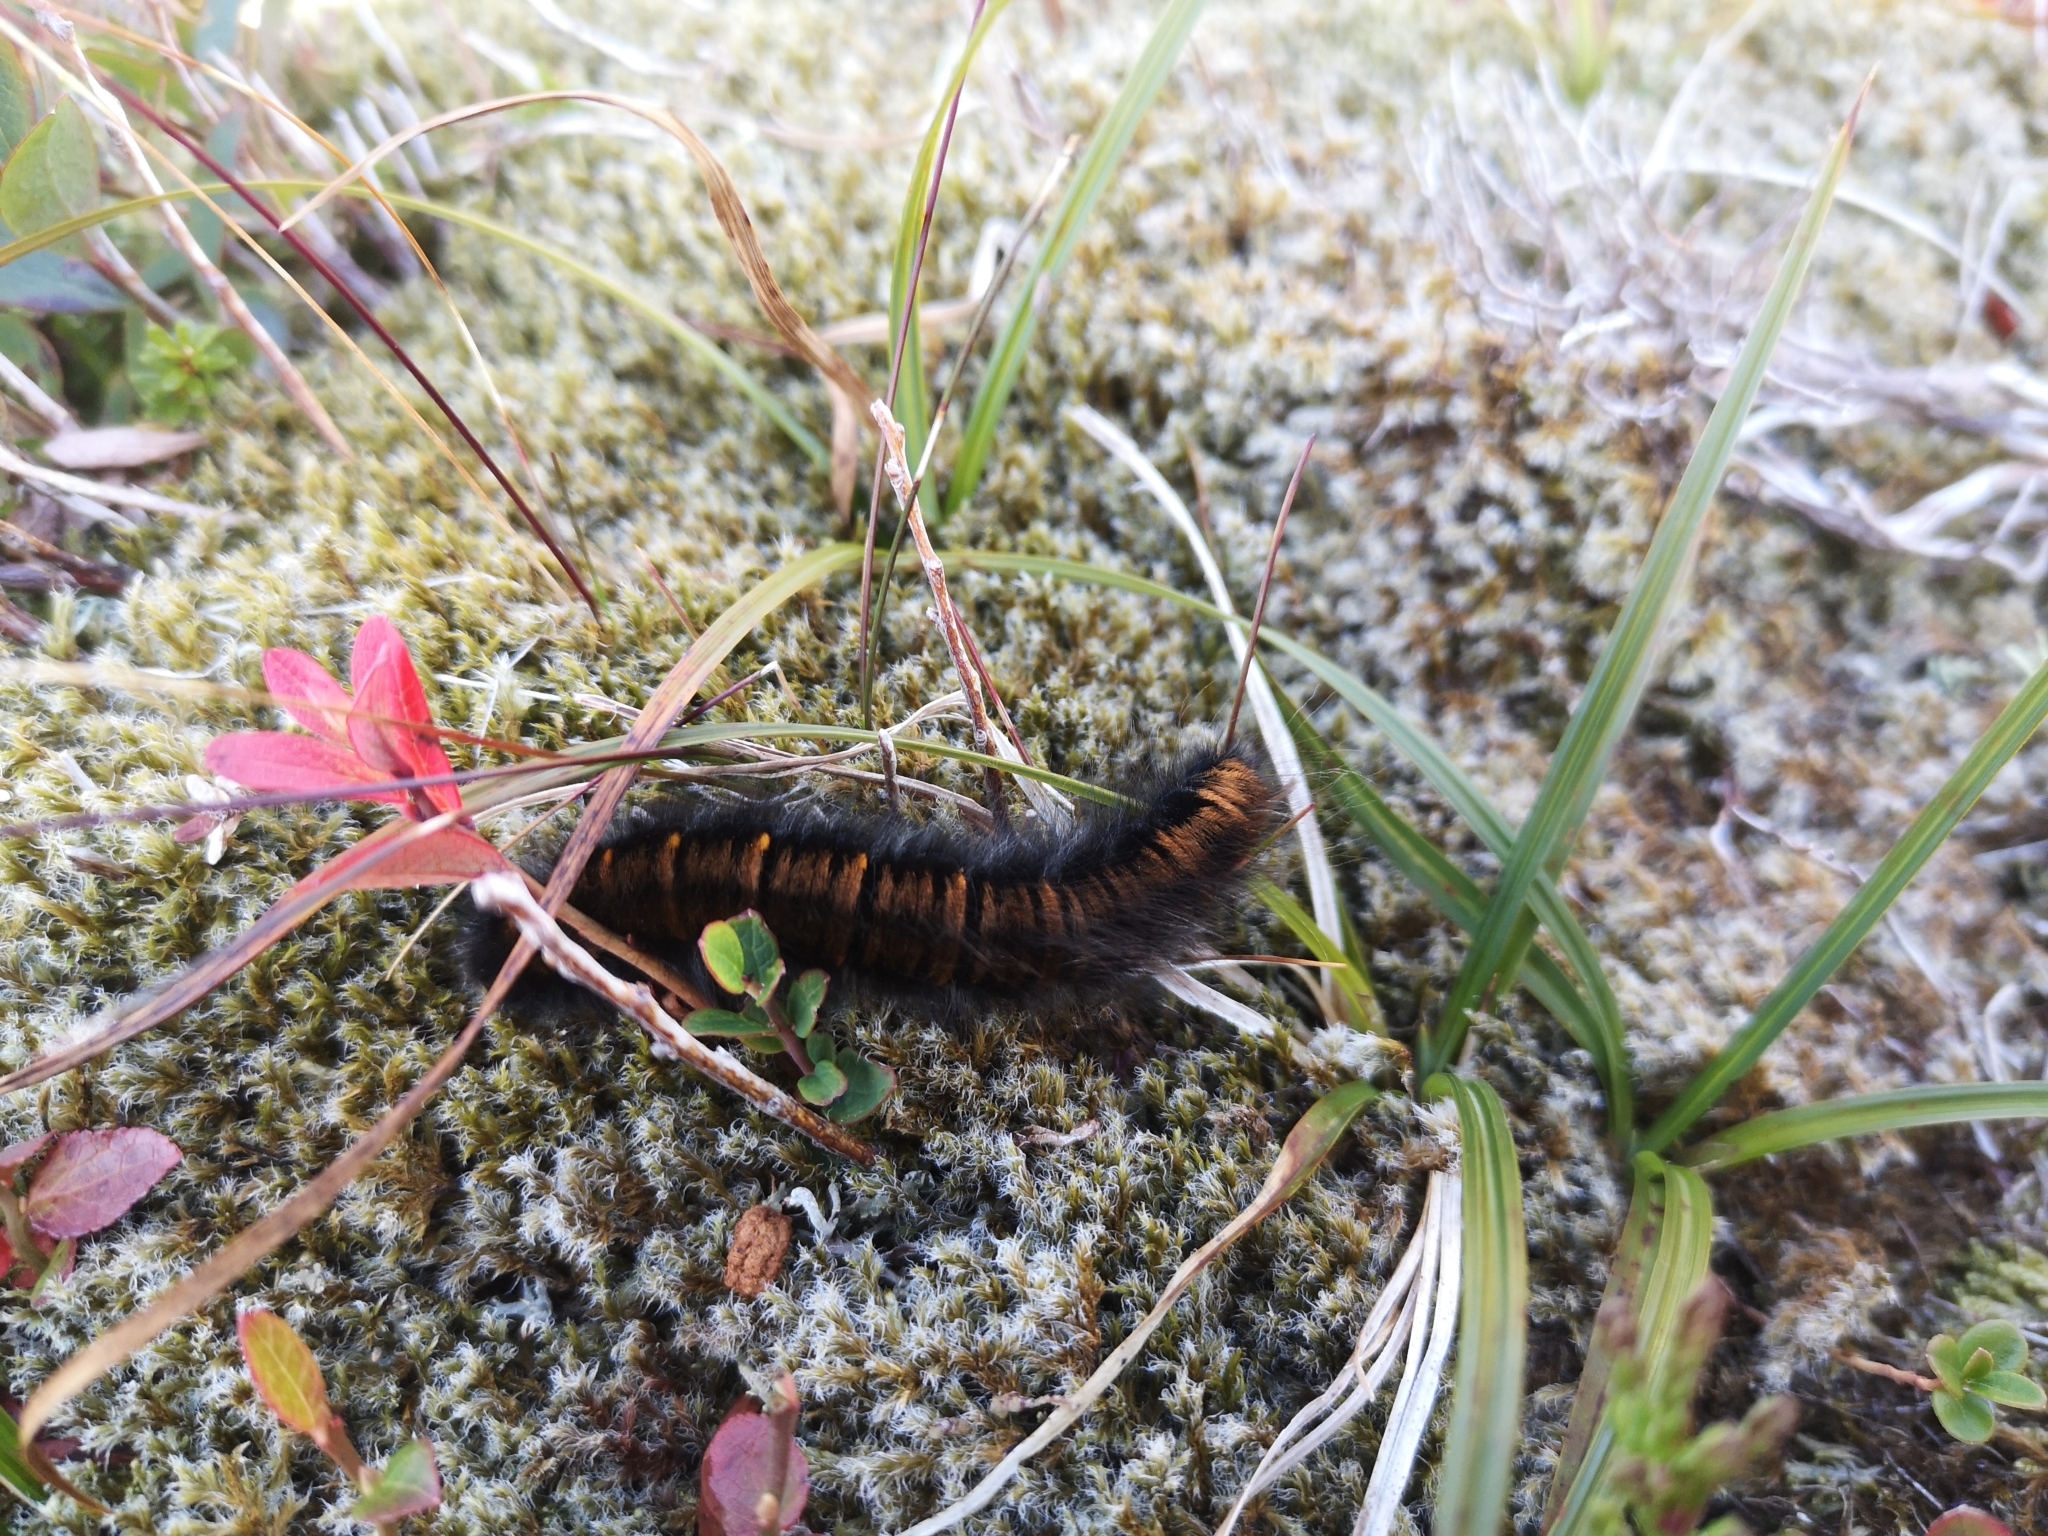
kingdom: Animalia
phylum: Arthropoda
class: Insecta
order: Lepidoptera
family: Lasiocampidae
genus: Macrothylacia
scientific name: Macrothylacia rubi
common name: Fox moth
